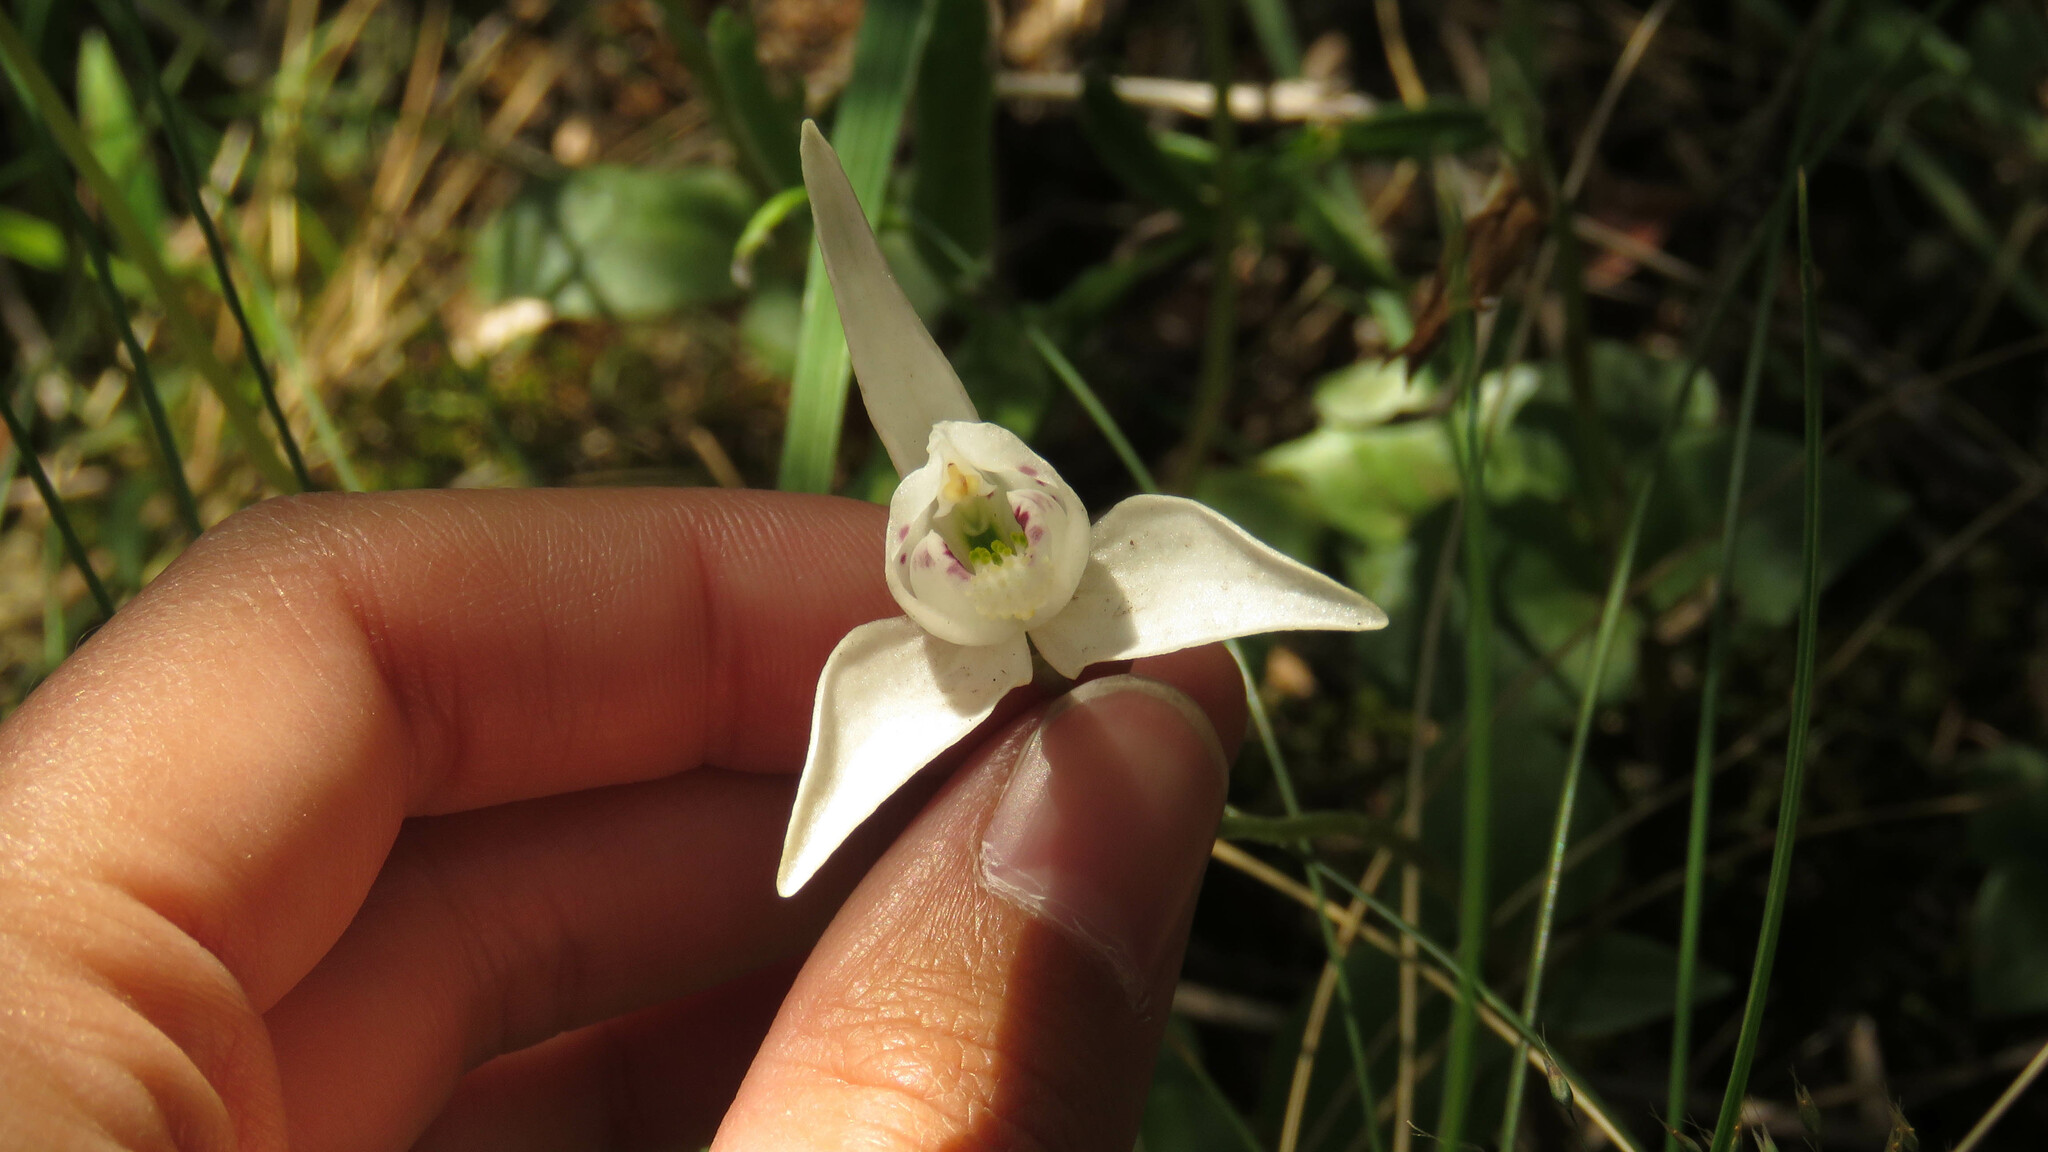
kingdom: Plantae
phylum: Tracheophyta
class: Liliopsida
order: Asparagales
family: Orchidaceae
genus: Codonorchis
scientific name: Codonorchis lessonii
